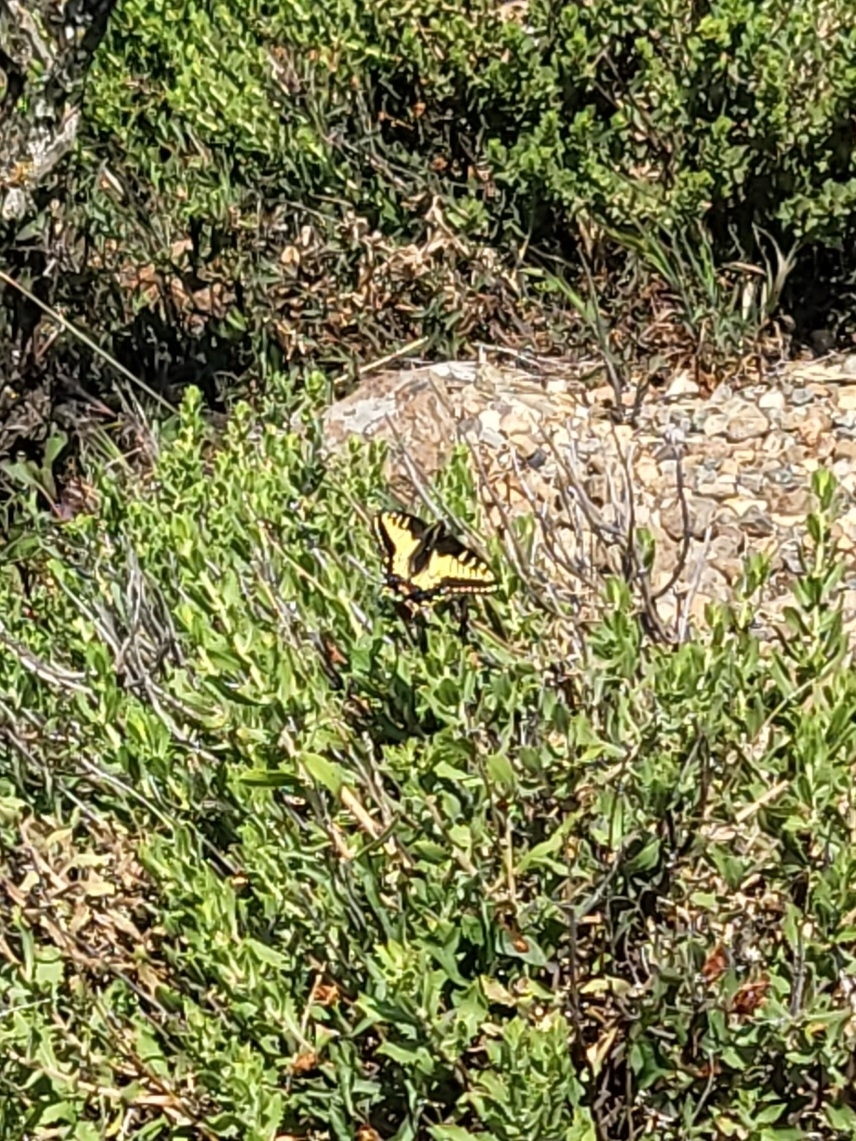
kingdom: Animalia
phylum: Arthropoda
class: Insecta
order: Lepidoptera
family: Papilionidae
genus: Papilio
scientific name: Papilio zelicaon
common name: Anise swallowtail
